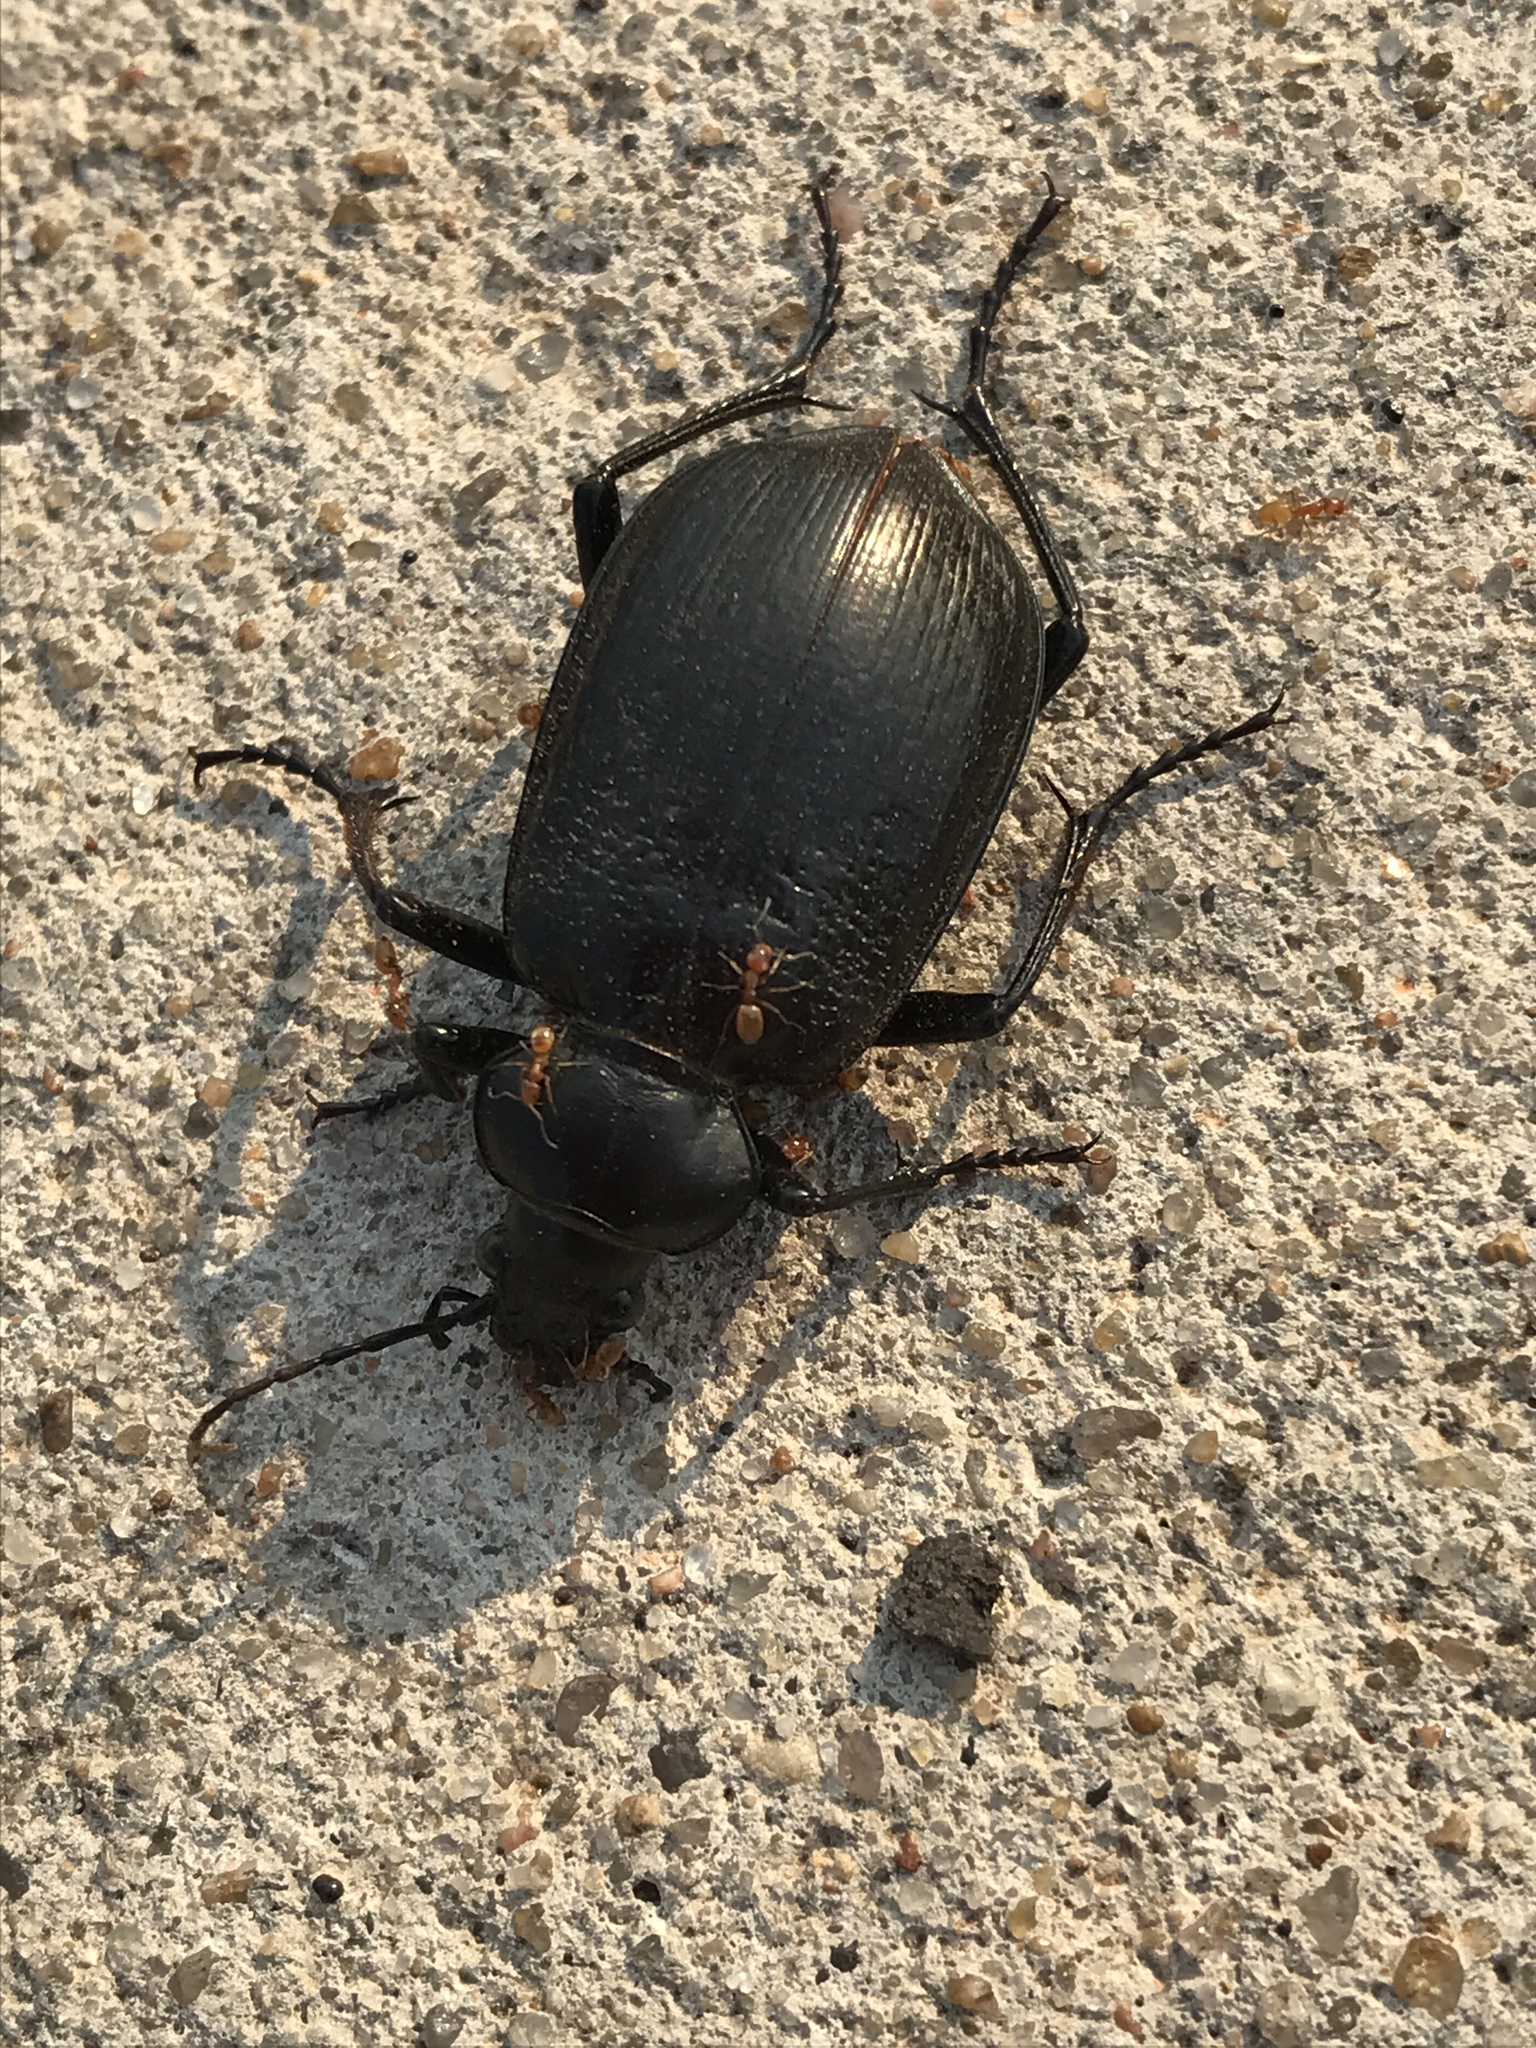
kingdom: Animalia
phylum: Arthropoda
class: Insecta
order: Coleoptera
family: Carabidae
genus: Calosoma
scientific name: Calosoma marginale
